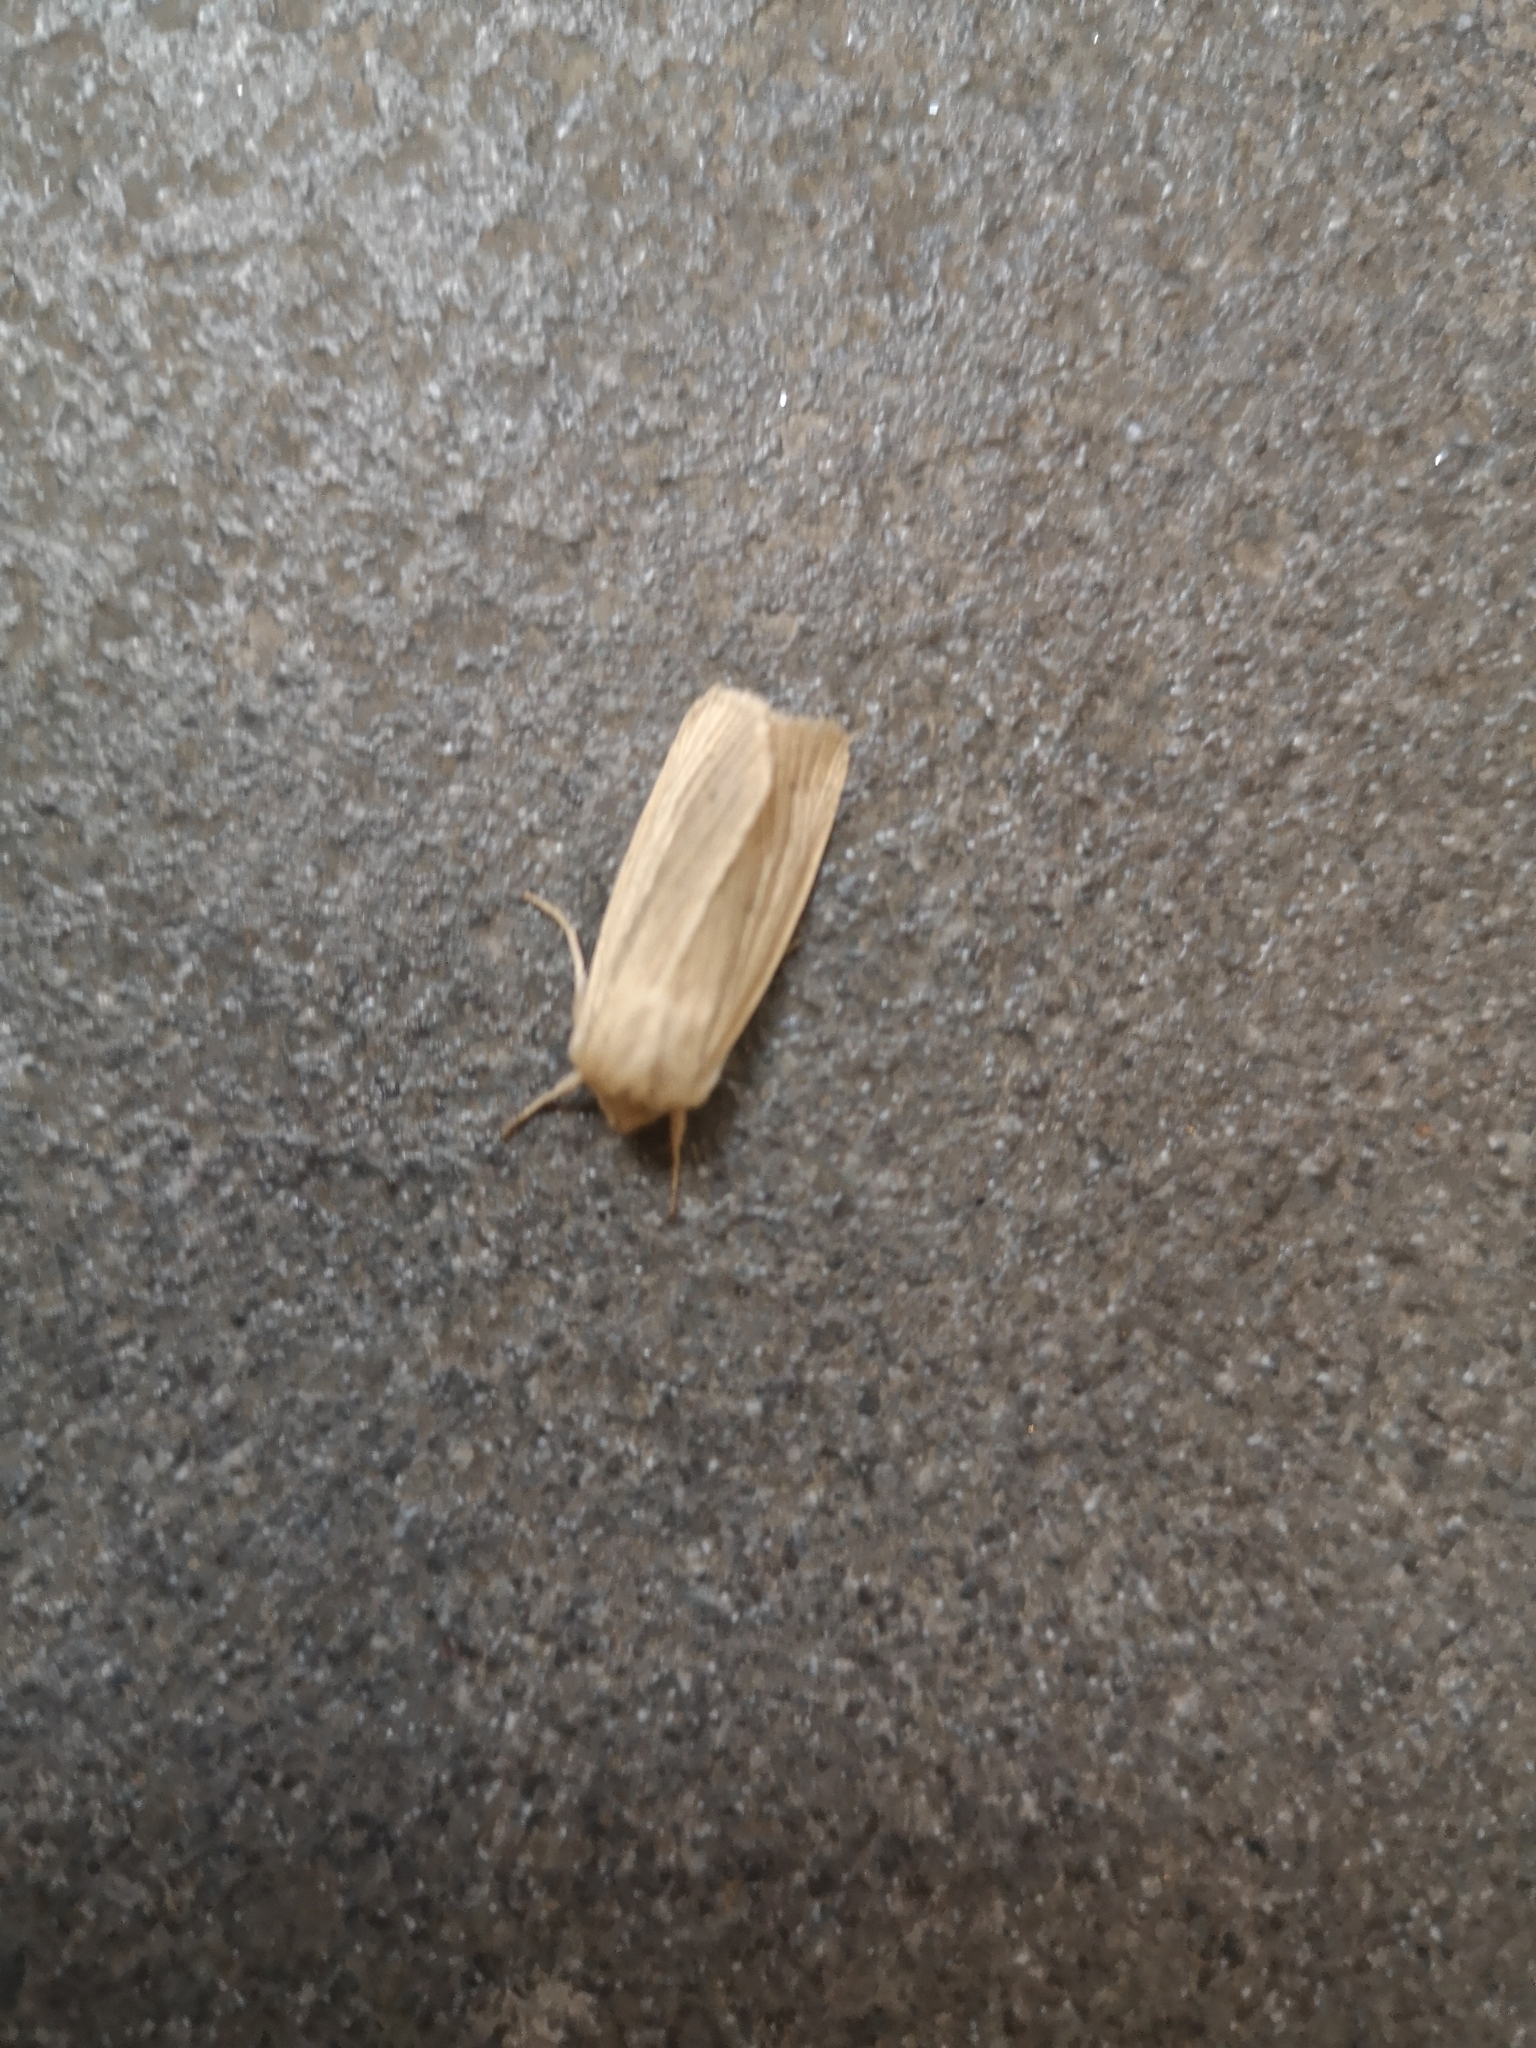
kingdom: Animalia
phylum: Arthropoda
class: Insecta
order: Lepidoptera
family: Noctuidae
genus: Mythimna
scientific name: Mythimna pallens
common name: Common wainscot
